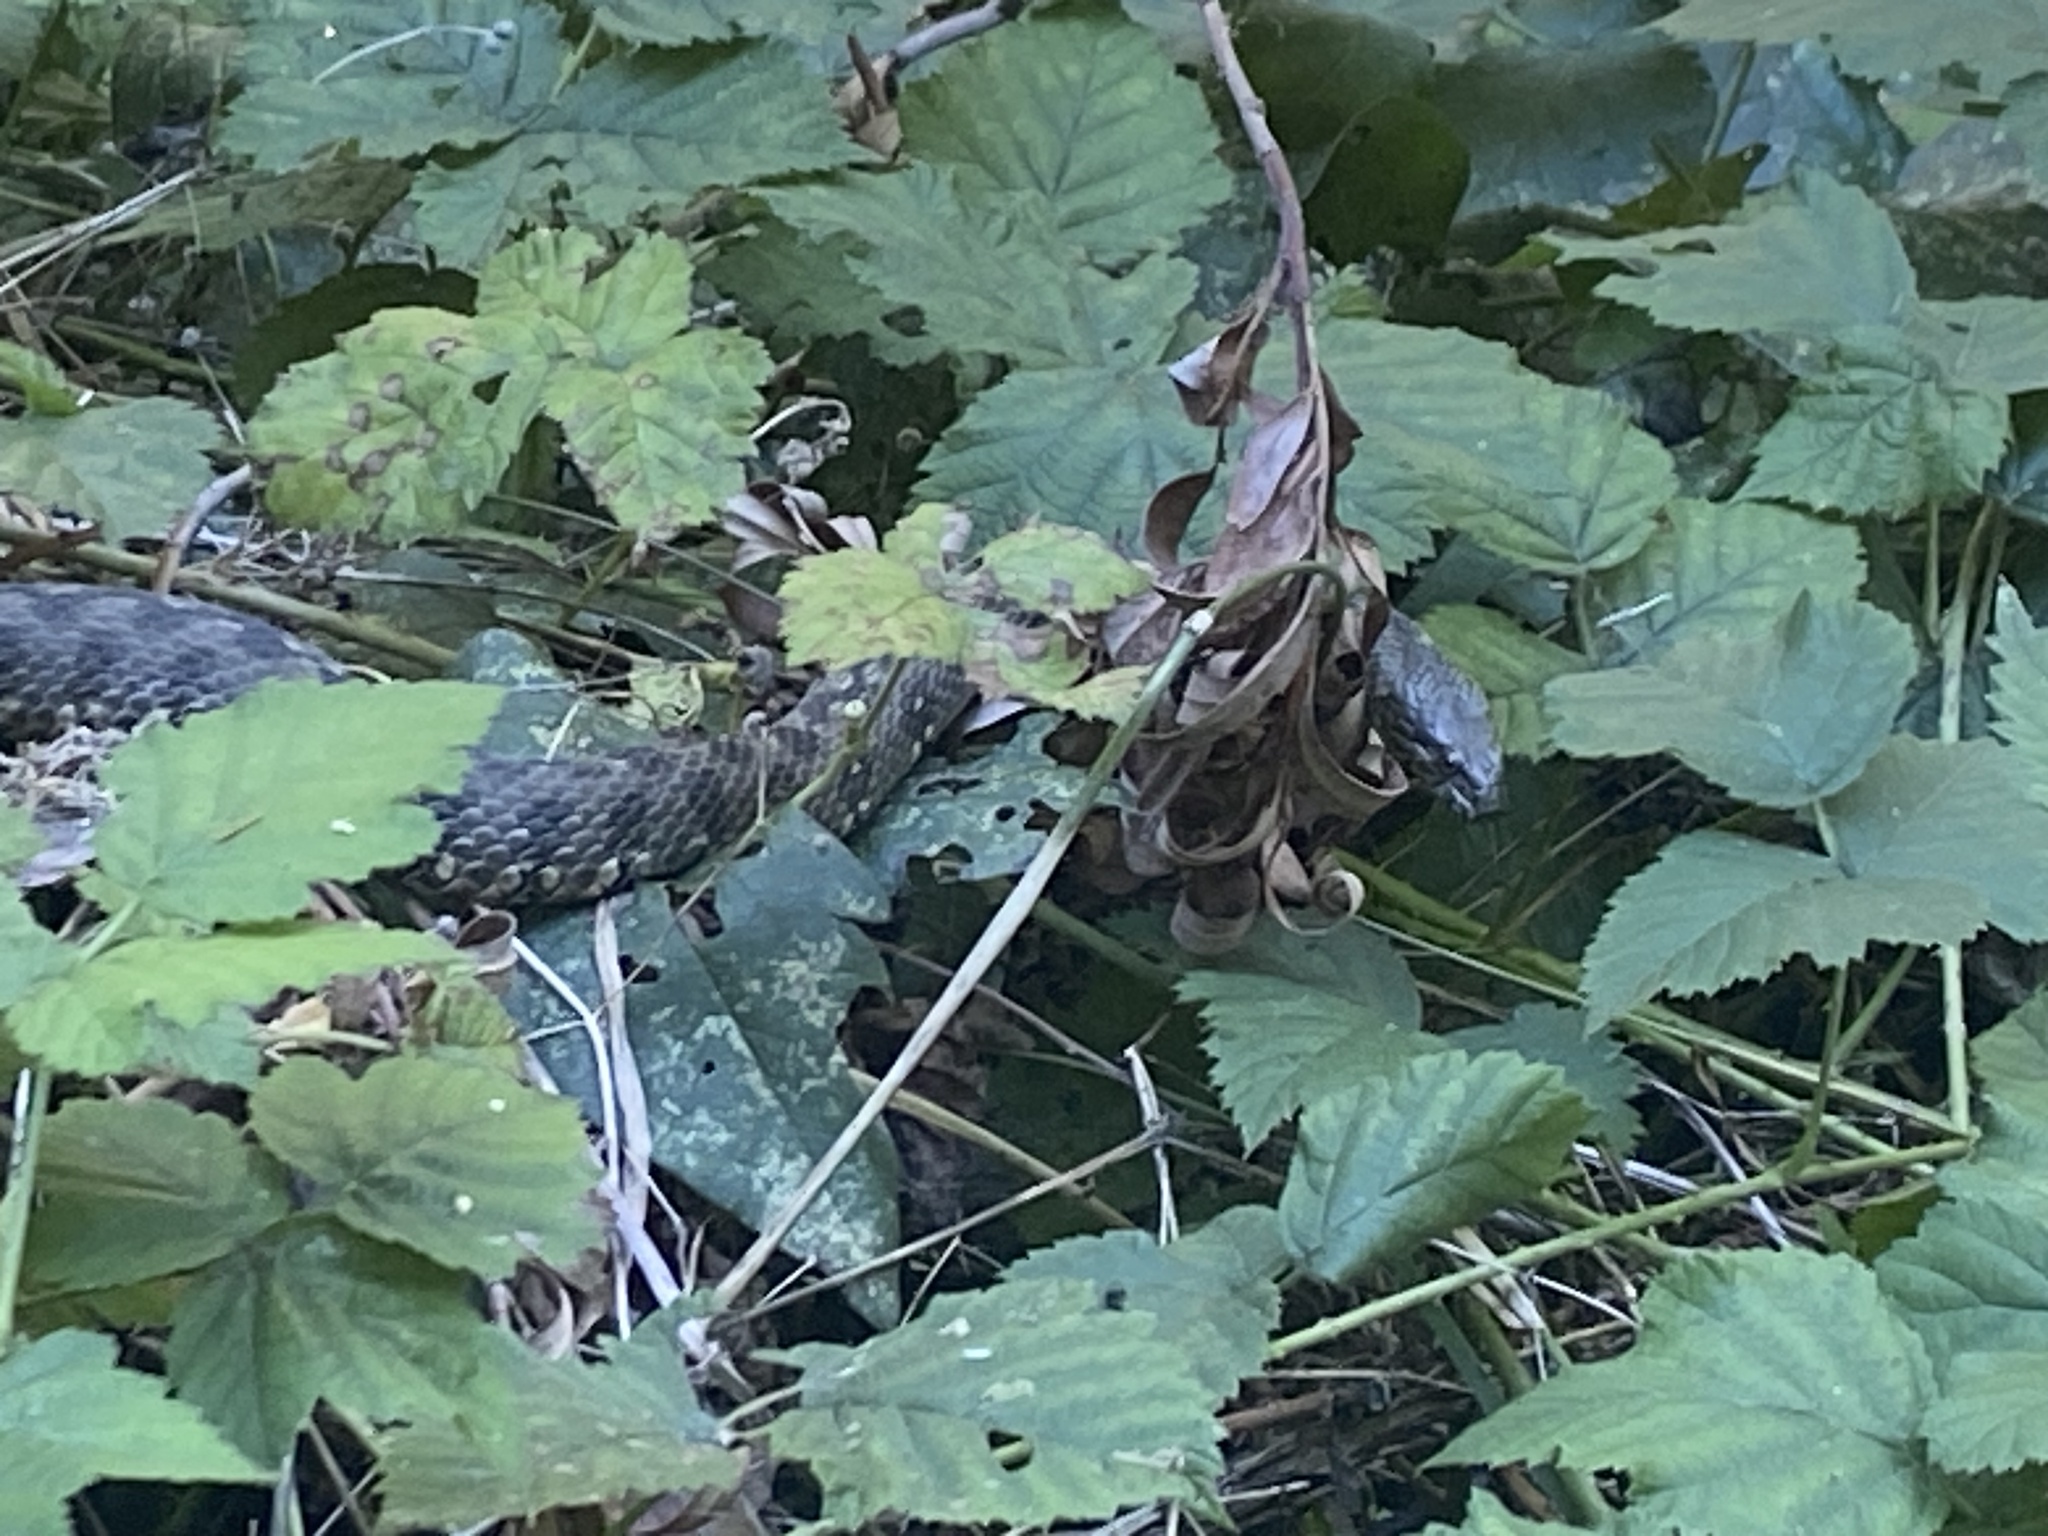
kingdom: Animalia
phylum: Chordata
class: Squamata
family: Colubridae
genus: Natrix
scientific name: Natrix maura
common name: Viperine water snake
